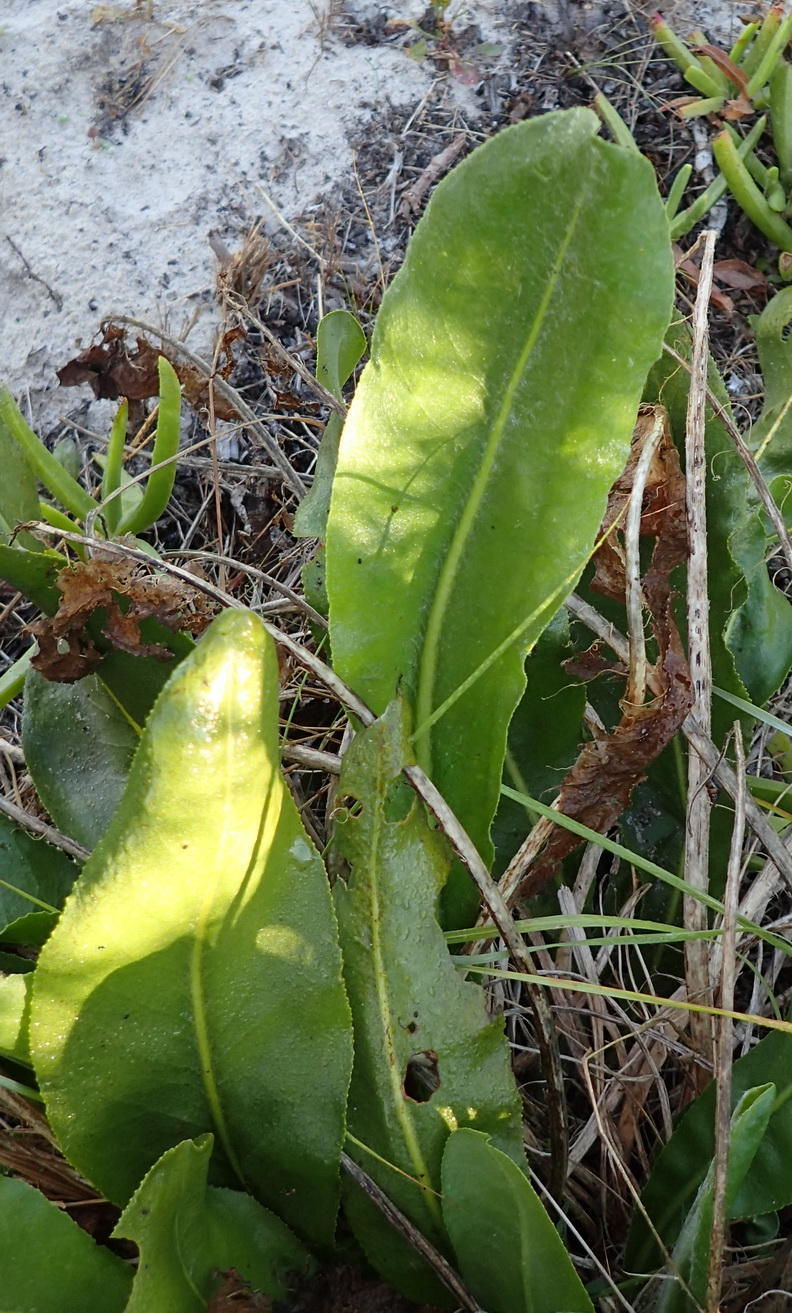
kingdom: Plantae
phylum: Tracheophyta
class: Magnoliopsida
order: Asterales
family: Asteraceae
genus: Senecio
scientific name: Senecio coronatus
